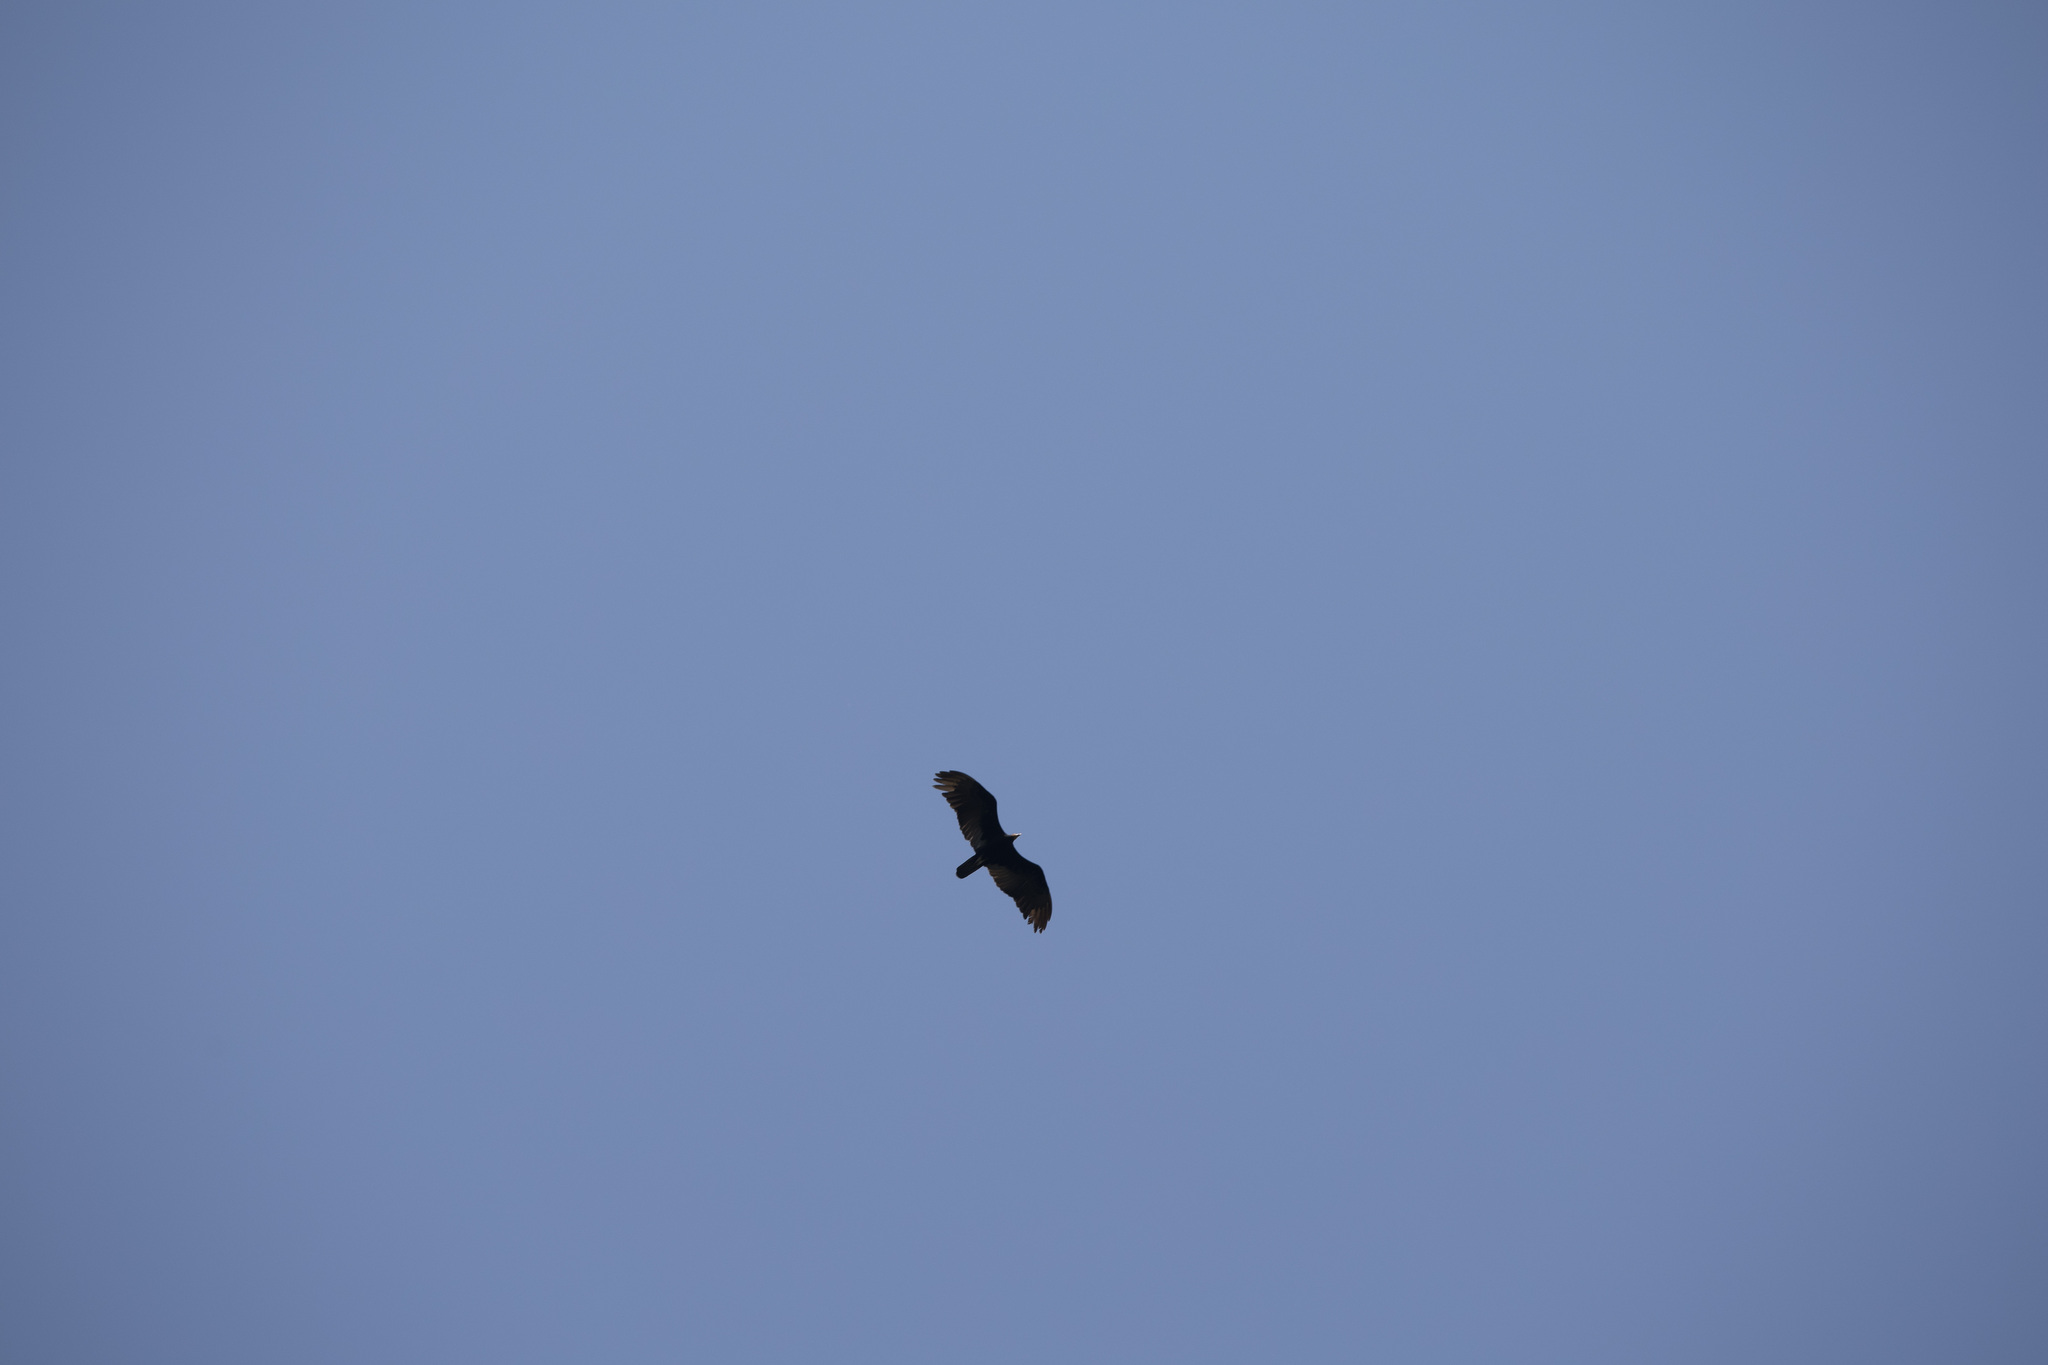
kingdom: Animalia
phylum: Chordata
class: Aves
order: Accipitriformes
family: Cathartidae
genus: Cathartes
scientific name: Cathartes melambrotus
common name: Greater yellow-headed vulture
